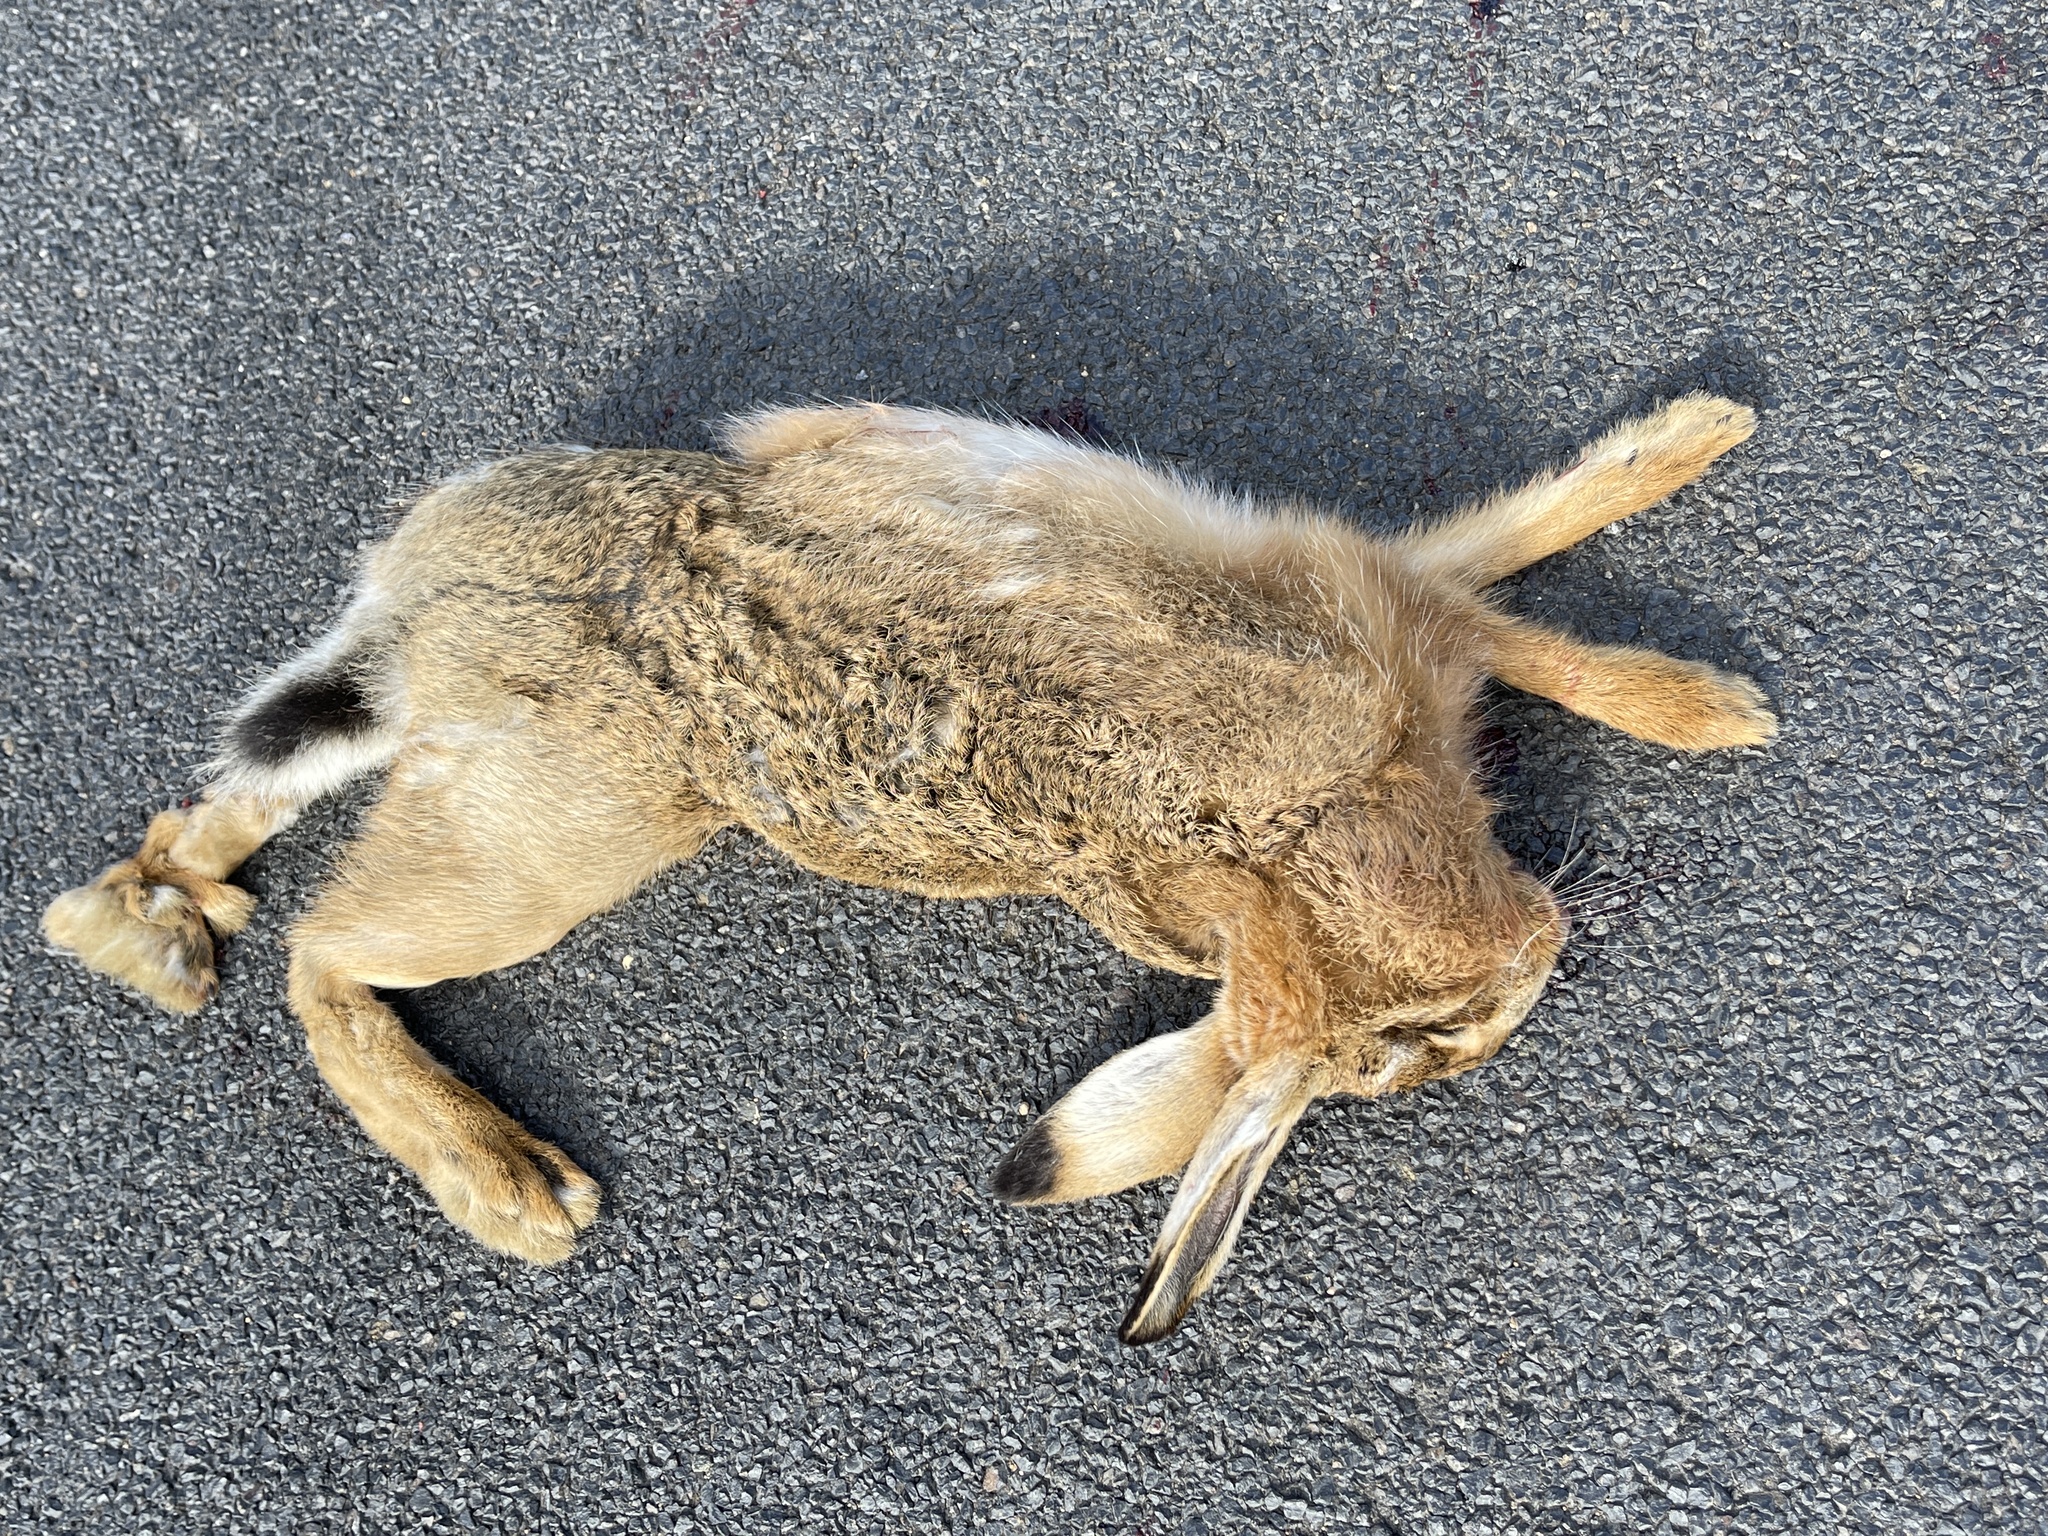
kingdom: Animalia
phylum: Chordata
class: Mammalia
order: Lagomorpha
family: Leporidae
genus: Lepus
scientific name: Lepus europaeus
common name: European hare
